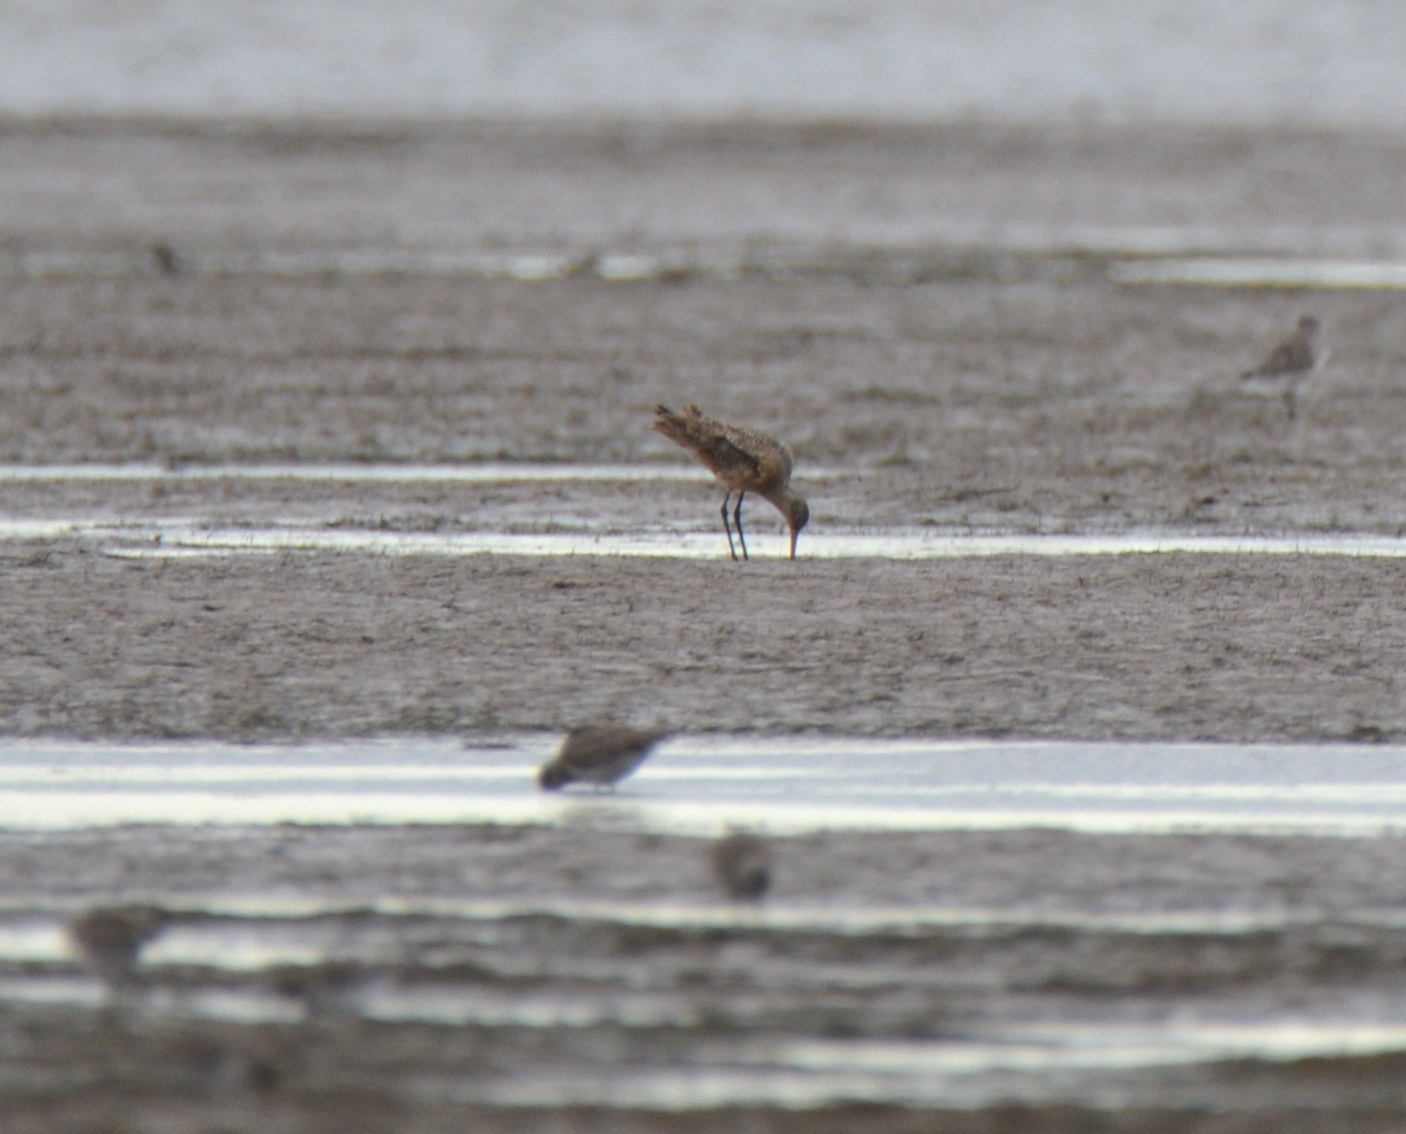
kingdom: Animalia
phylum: Chordata
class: Aves
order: Charadriiformes
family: Scolopacidae
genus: Limosa
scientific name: Limosa fedoa
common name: Marbled godwit
